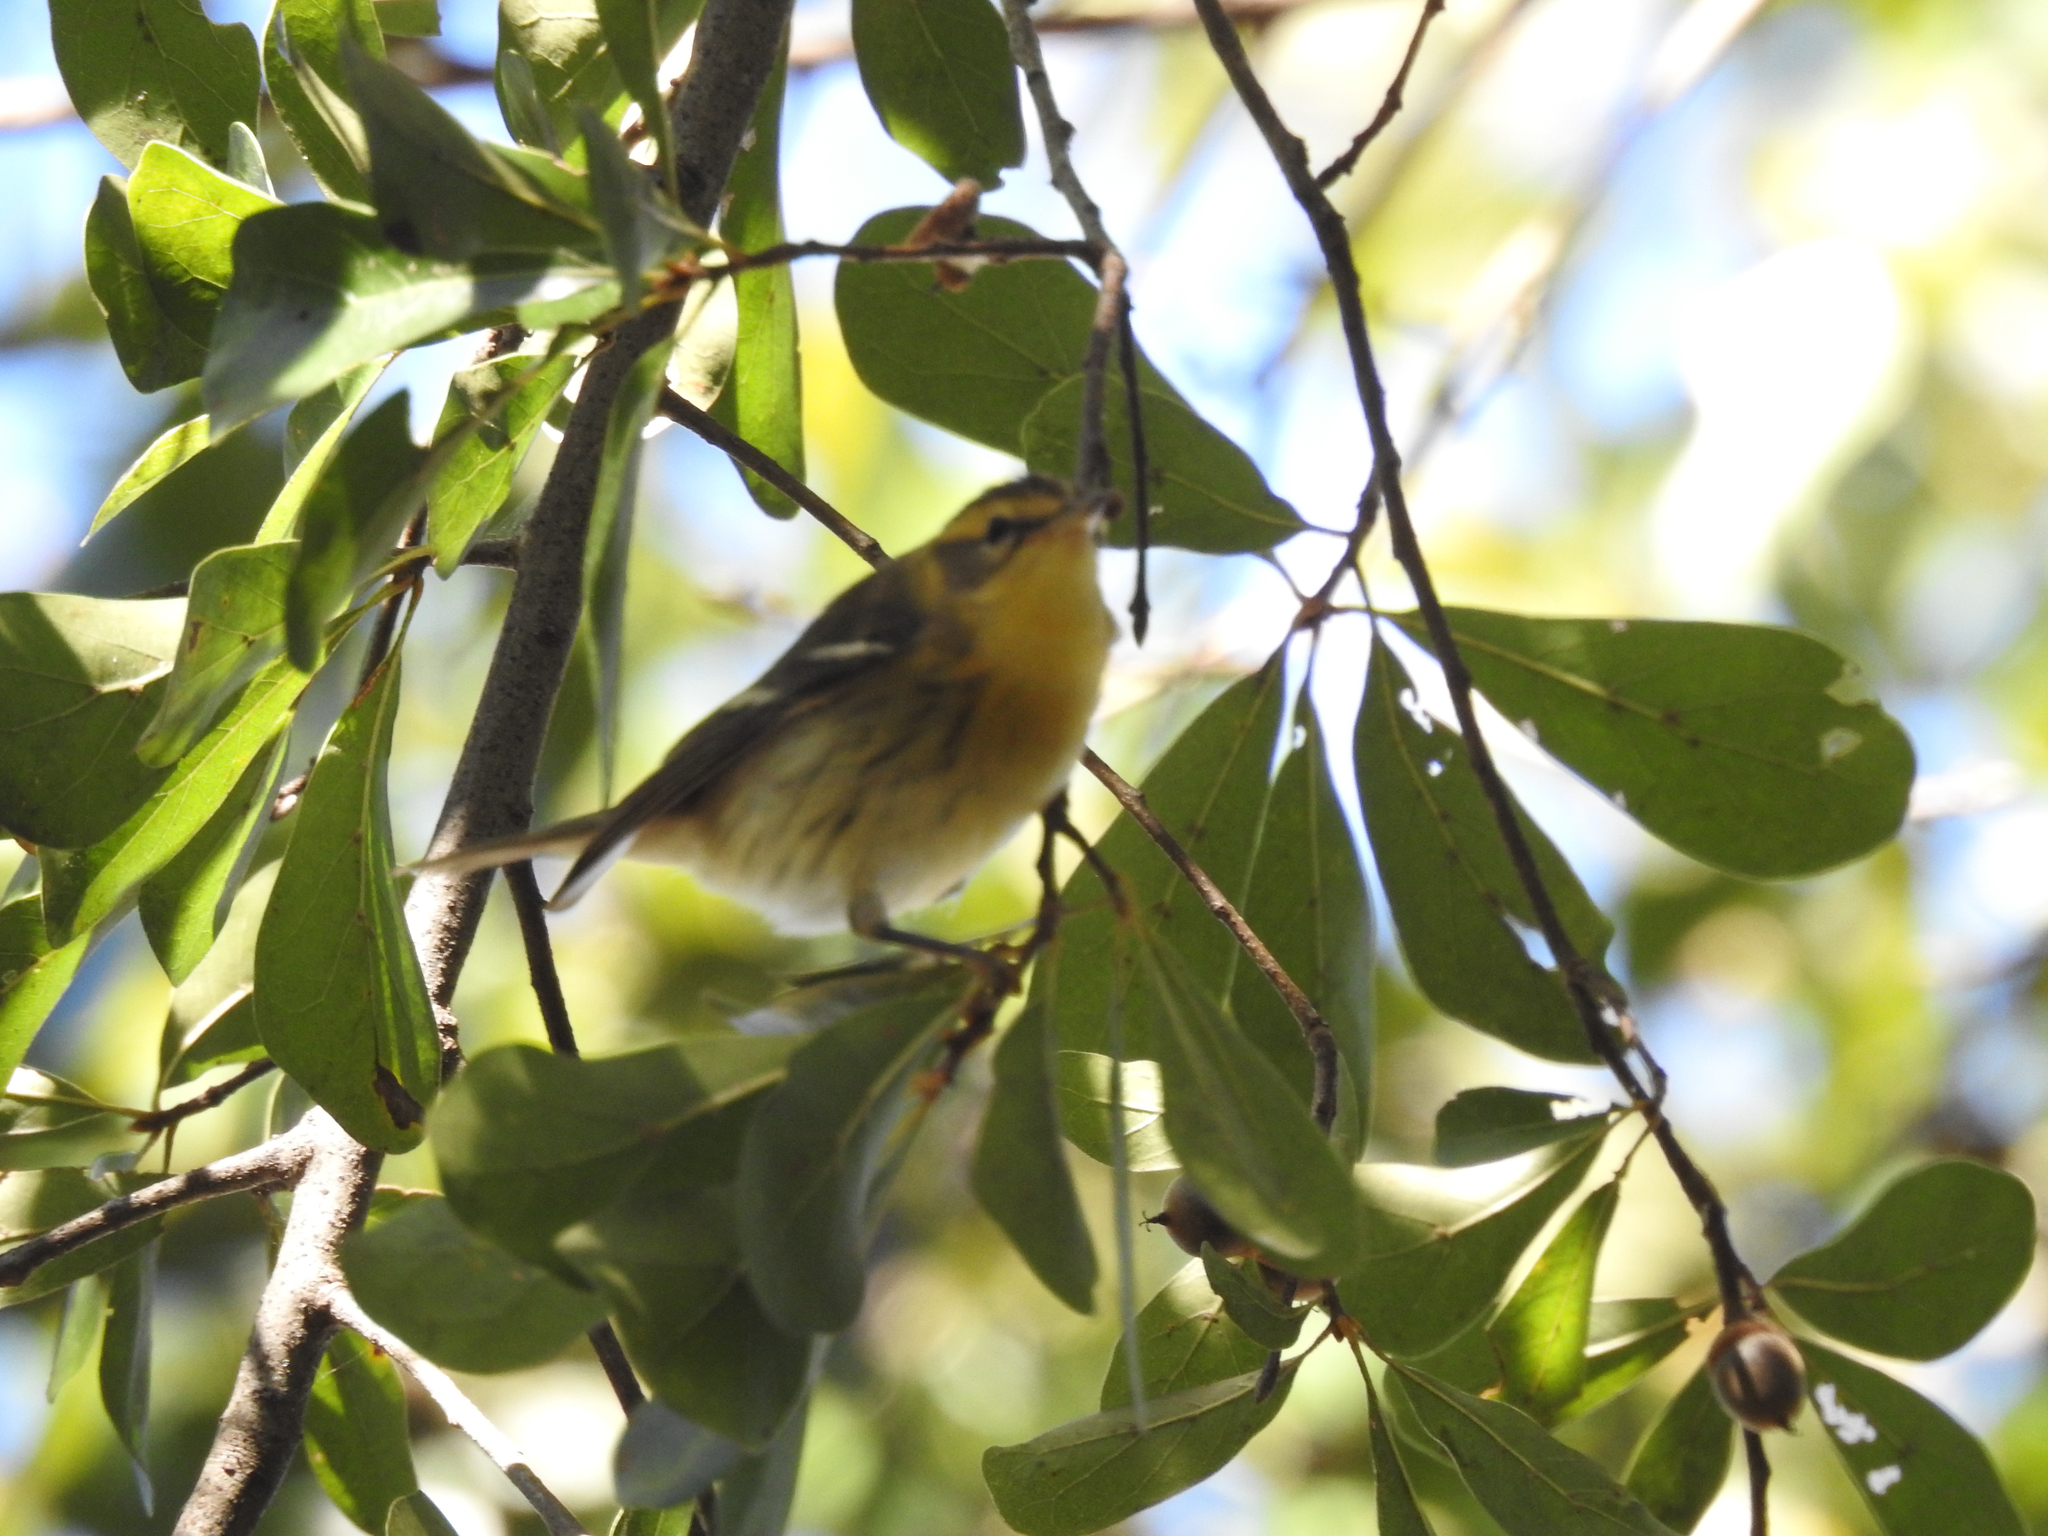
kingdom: Animalia
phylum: Chordata
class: Aves
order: Passeriformes
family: Parulidae
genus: Setophaga
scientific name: Setophaga fusca
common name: Blackburnian warbler
